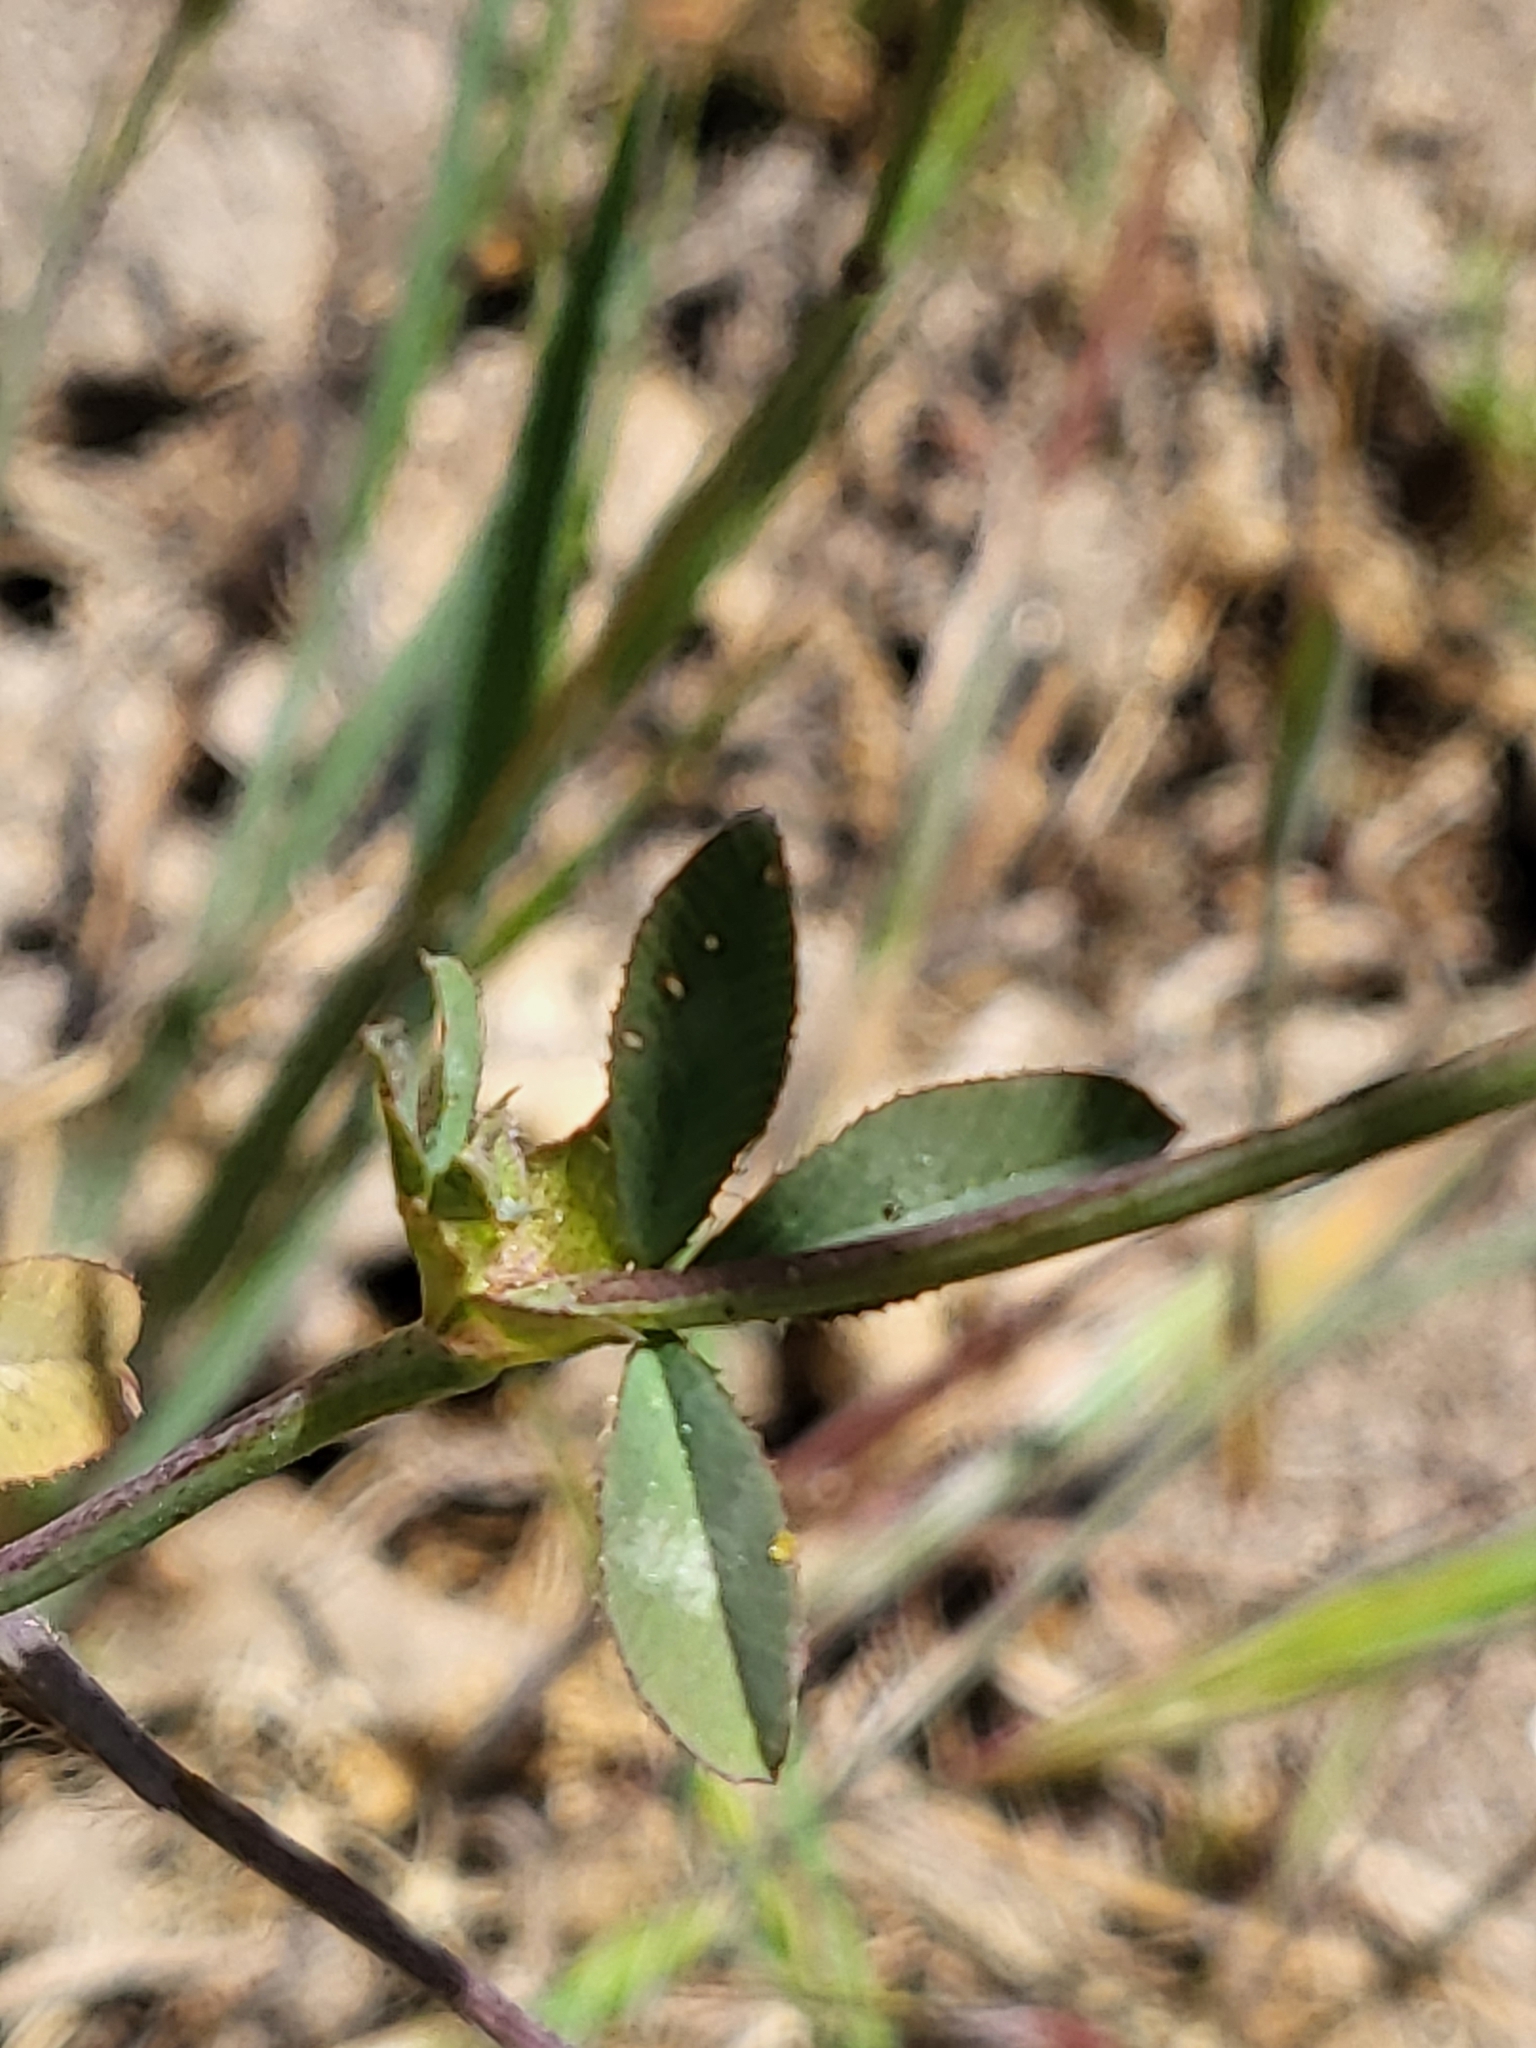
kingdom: Plantae
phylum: Tracheophyta
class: Magnoliopsida
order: Fabales
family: Fabaceae
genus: Trifolium
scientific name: Trifolium ciliolatum
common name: Foothill clover
